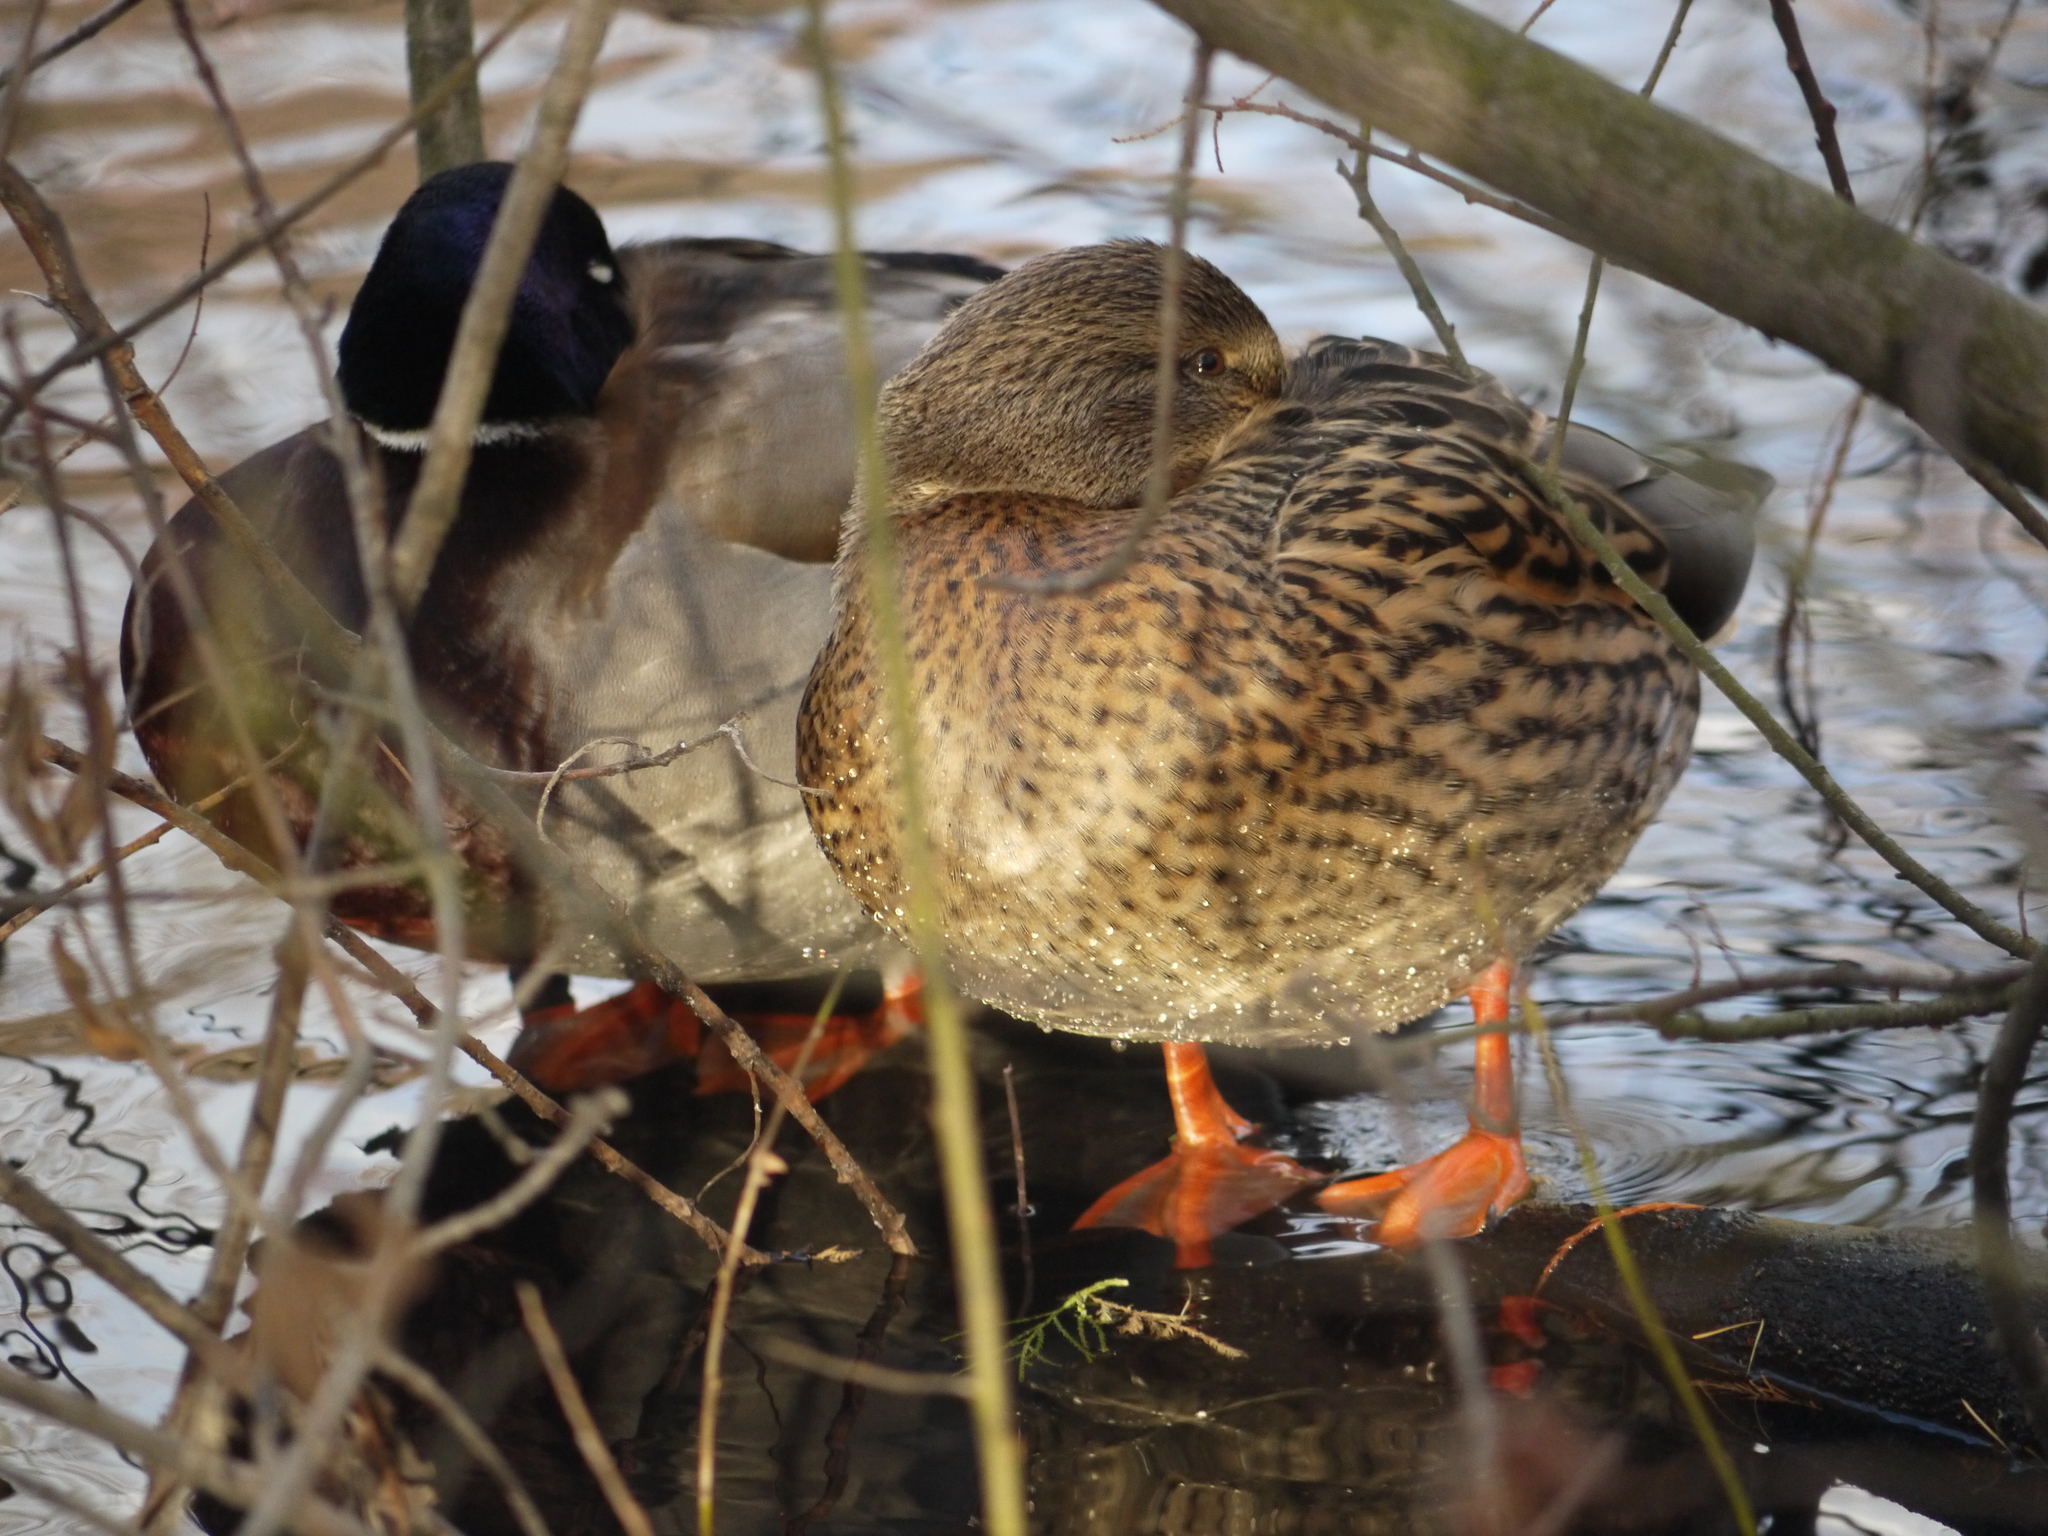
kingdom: Animalia
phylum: Chordata
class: Aves
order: Anseriformes
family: Anatidae
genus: Anas
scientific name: Anas platyrhynchos
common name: Mallard
